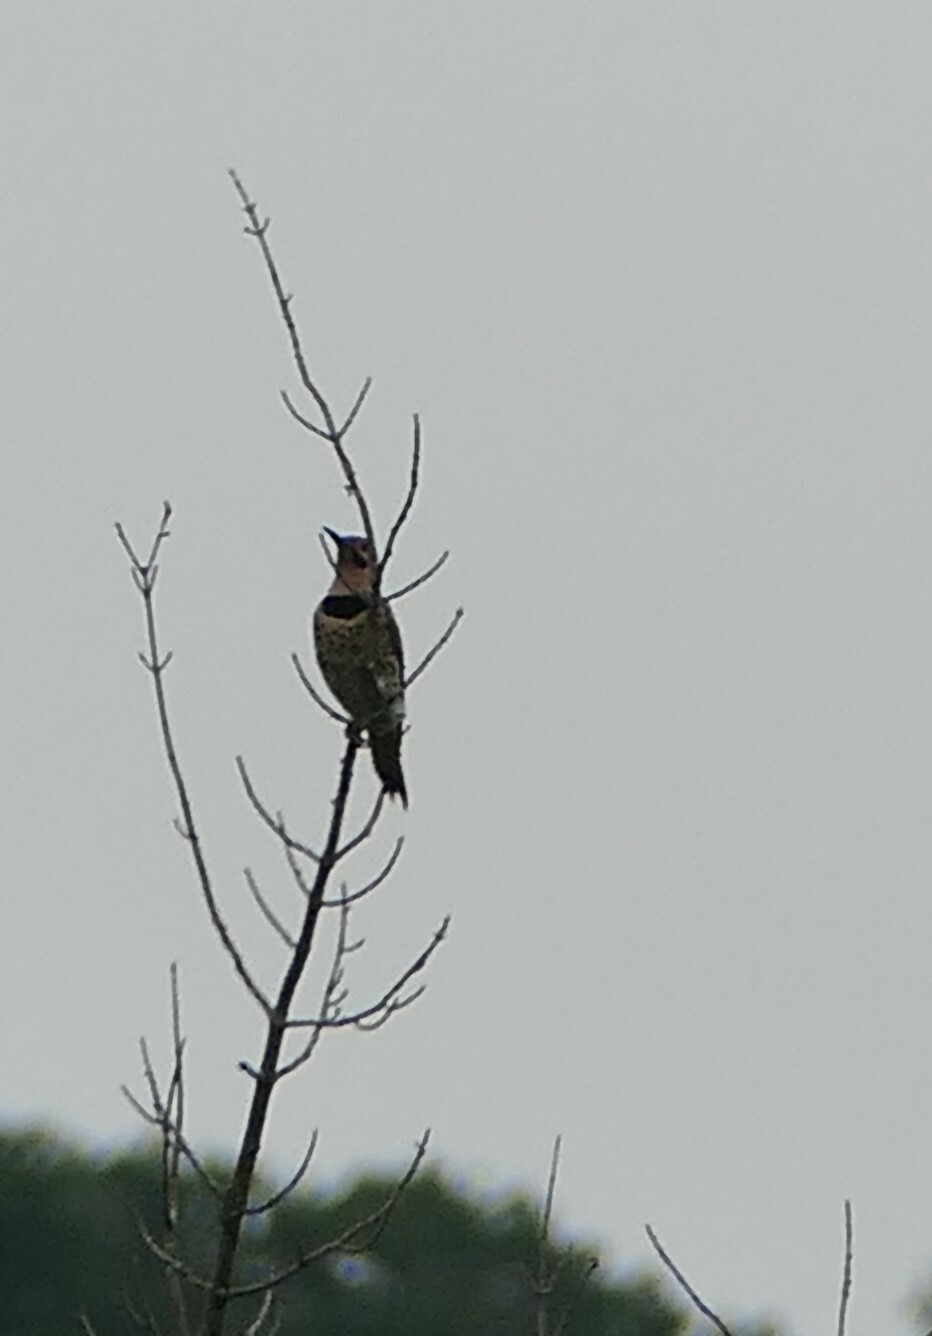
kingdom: Animalia
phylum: Chordata
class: Aves
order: Piciformes
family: Picidae
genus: Colaptes
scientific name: Colaptes auratus
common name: Northern flicker
